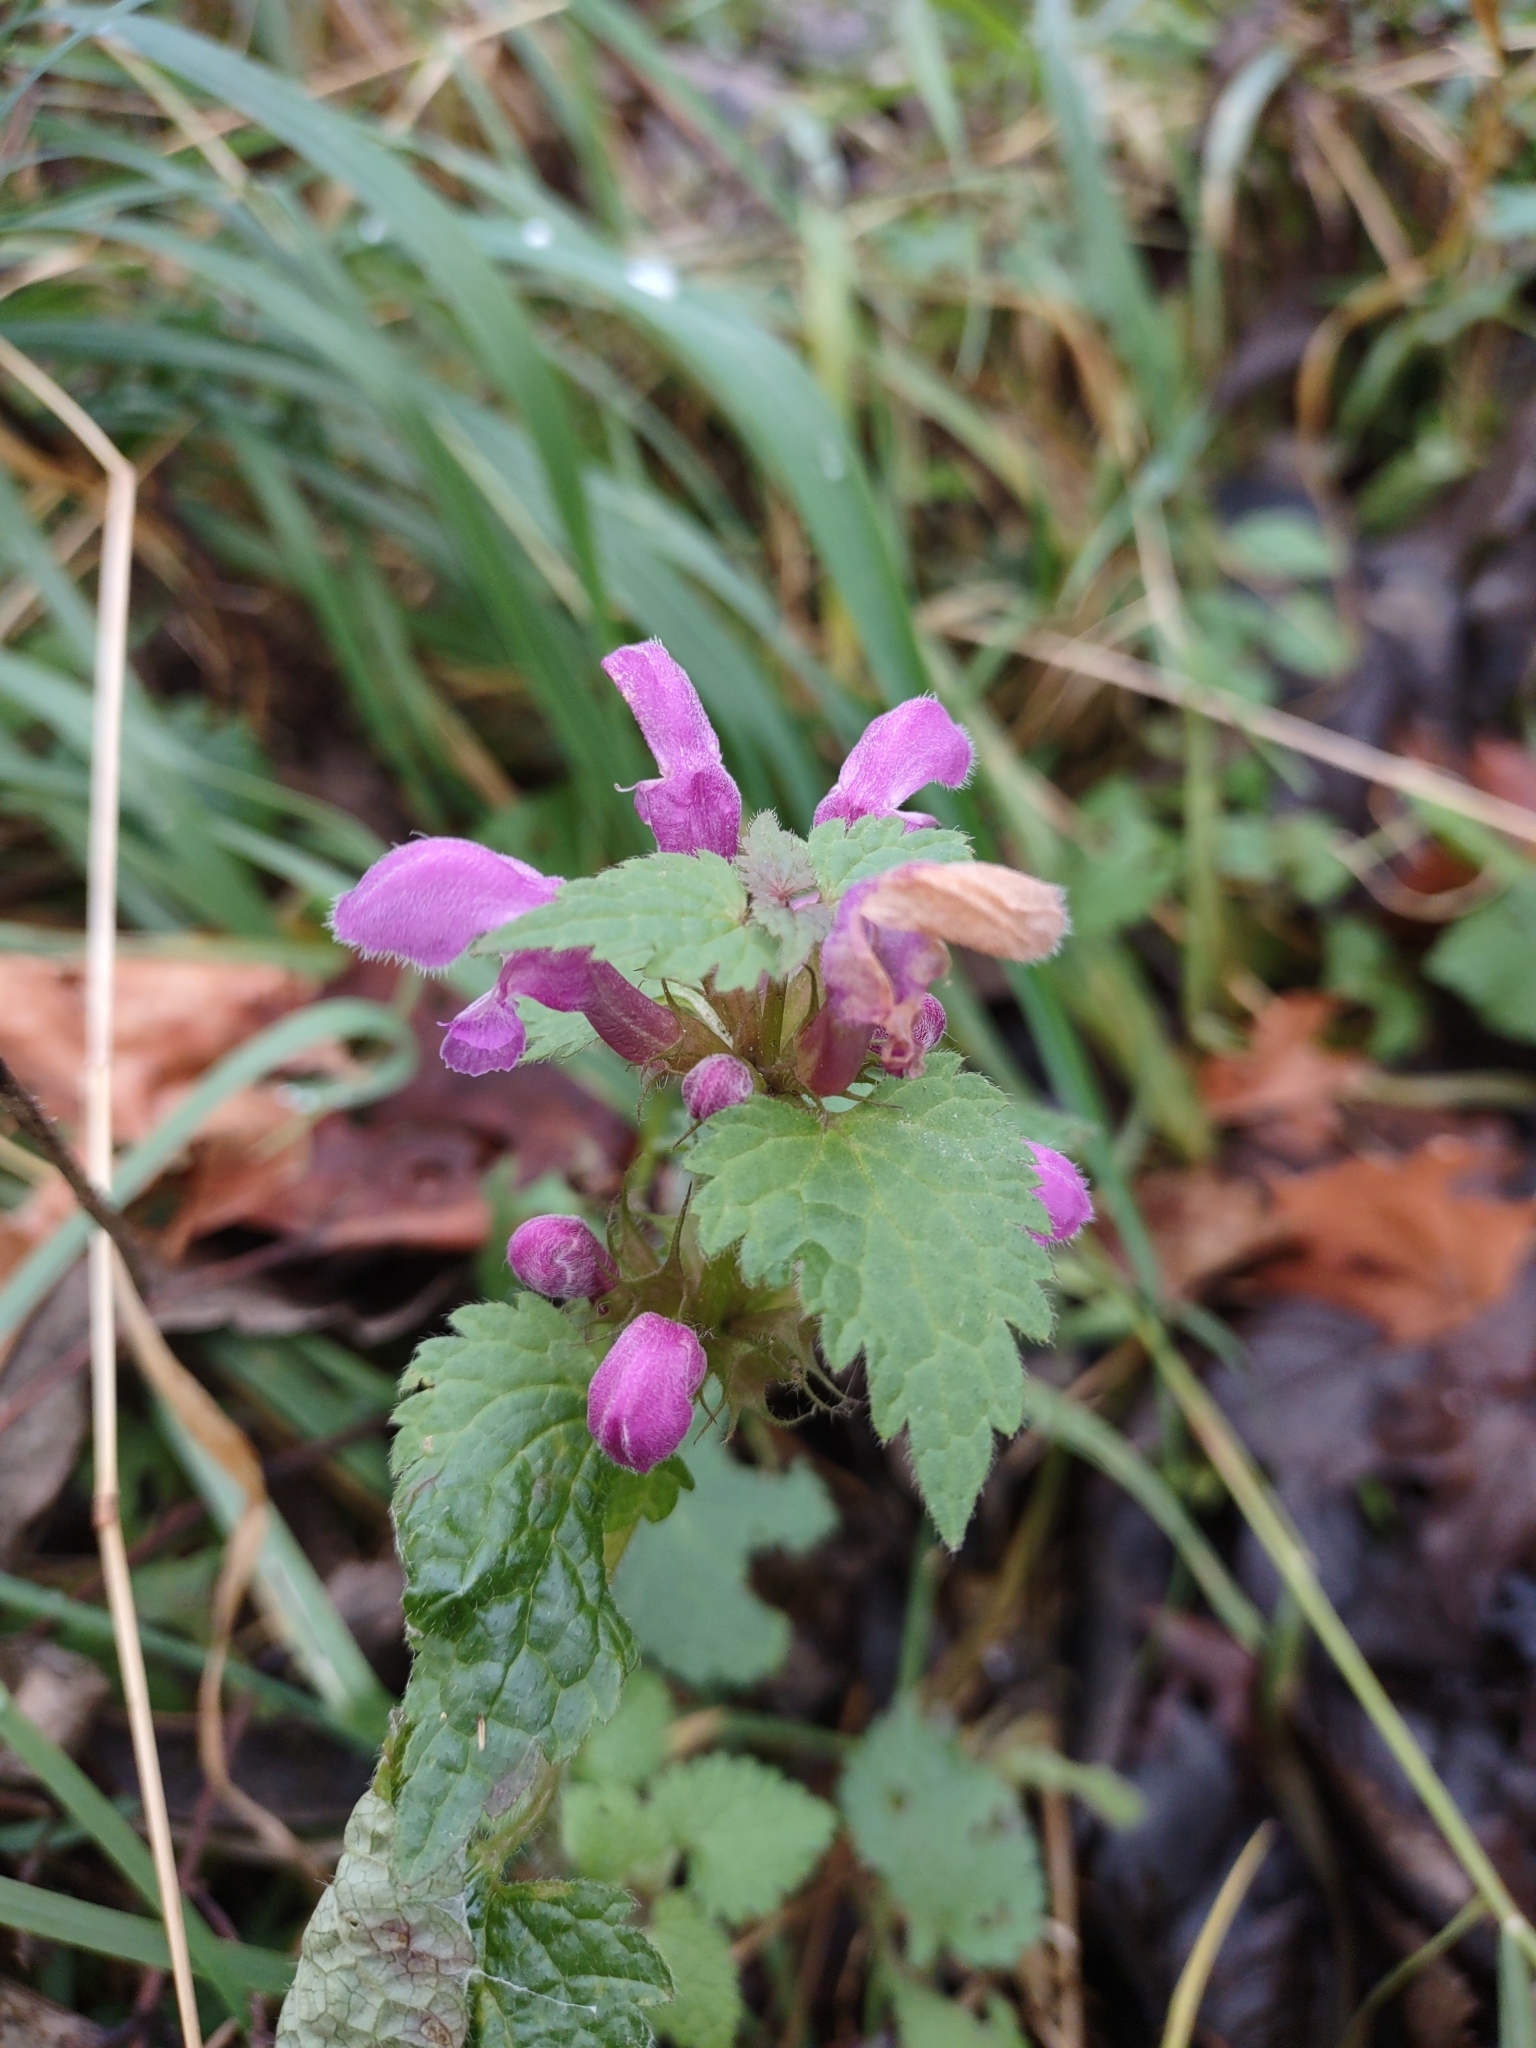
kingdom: Plantae
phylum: Tracheophyta
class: Magnoliopsida
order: Lamiales
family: Lamiaceae
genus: Lamium
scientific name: Lamium maculatum
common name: Spotted dead-nettle
